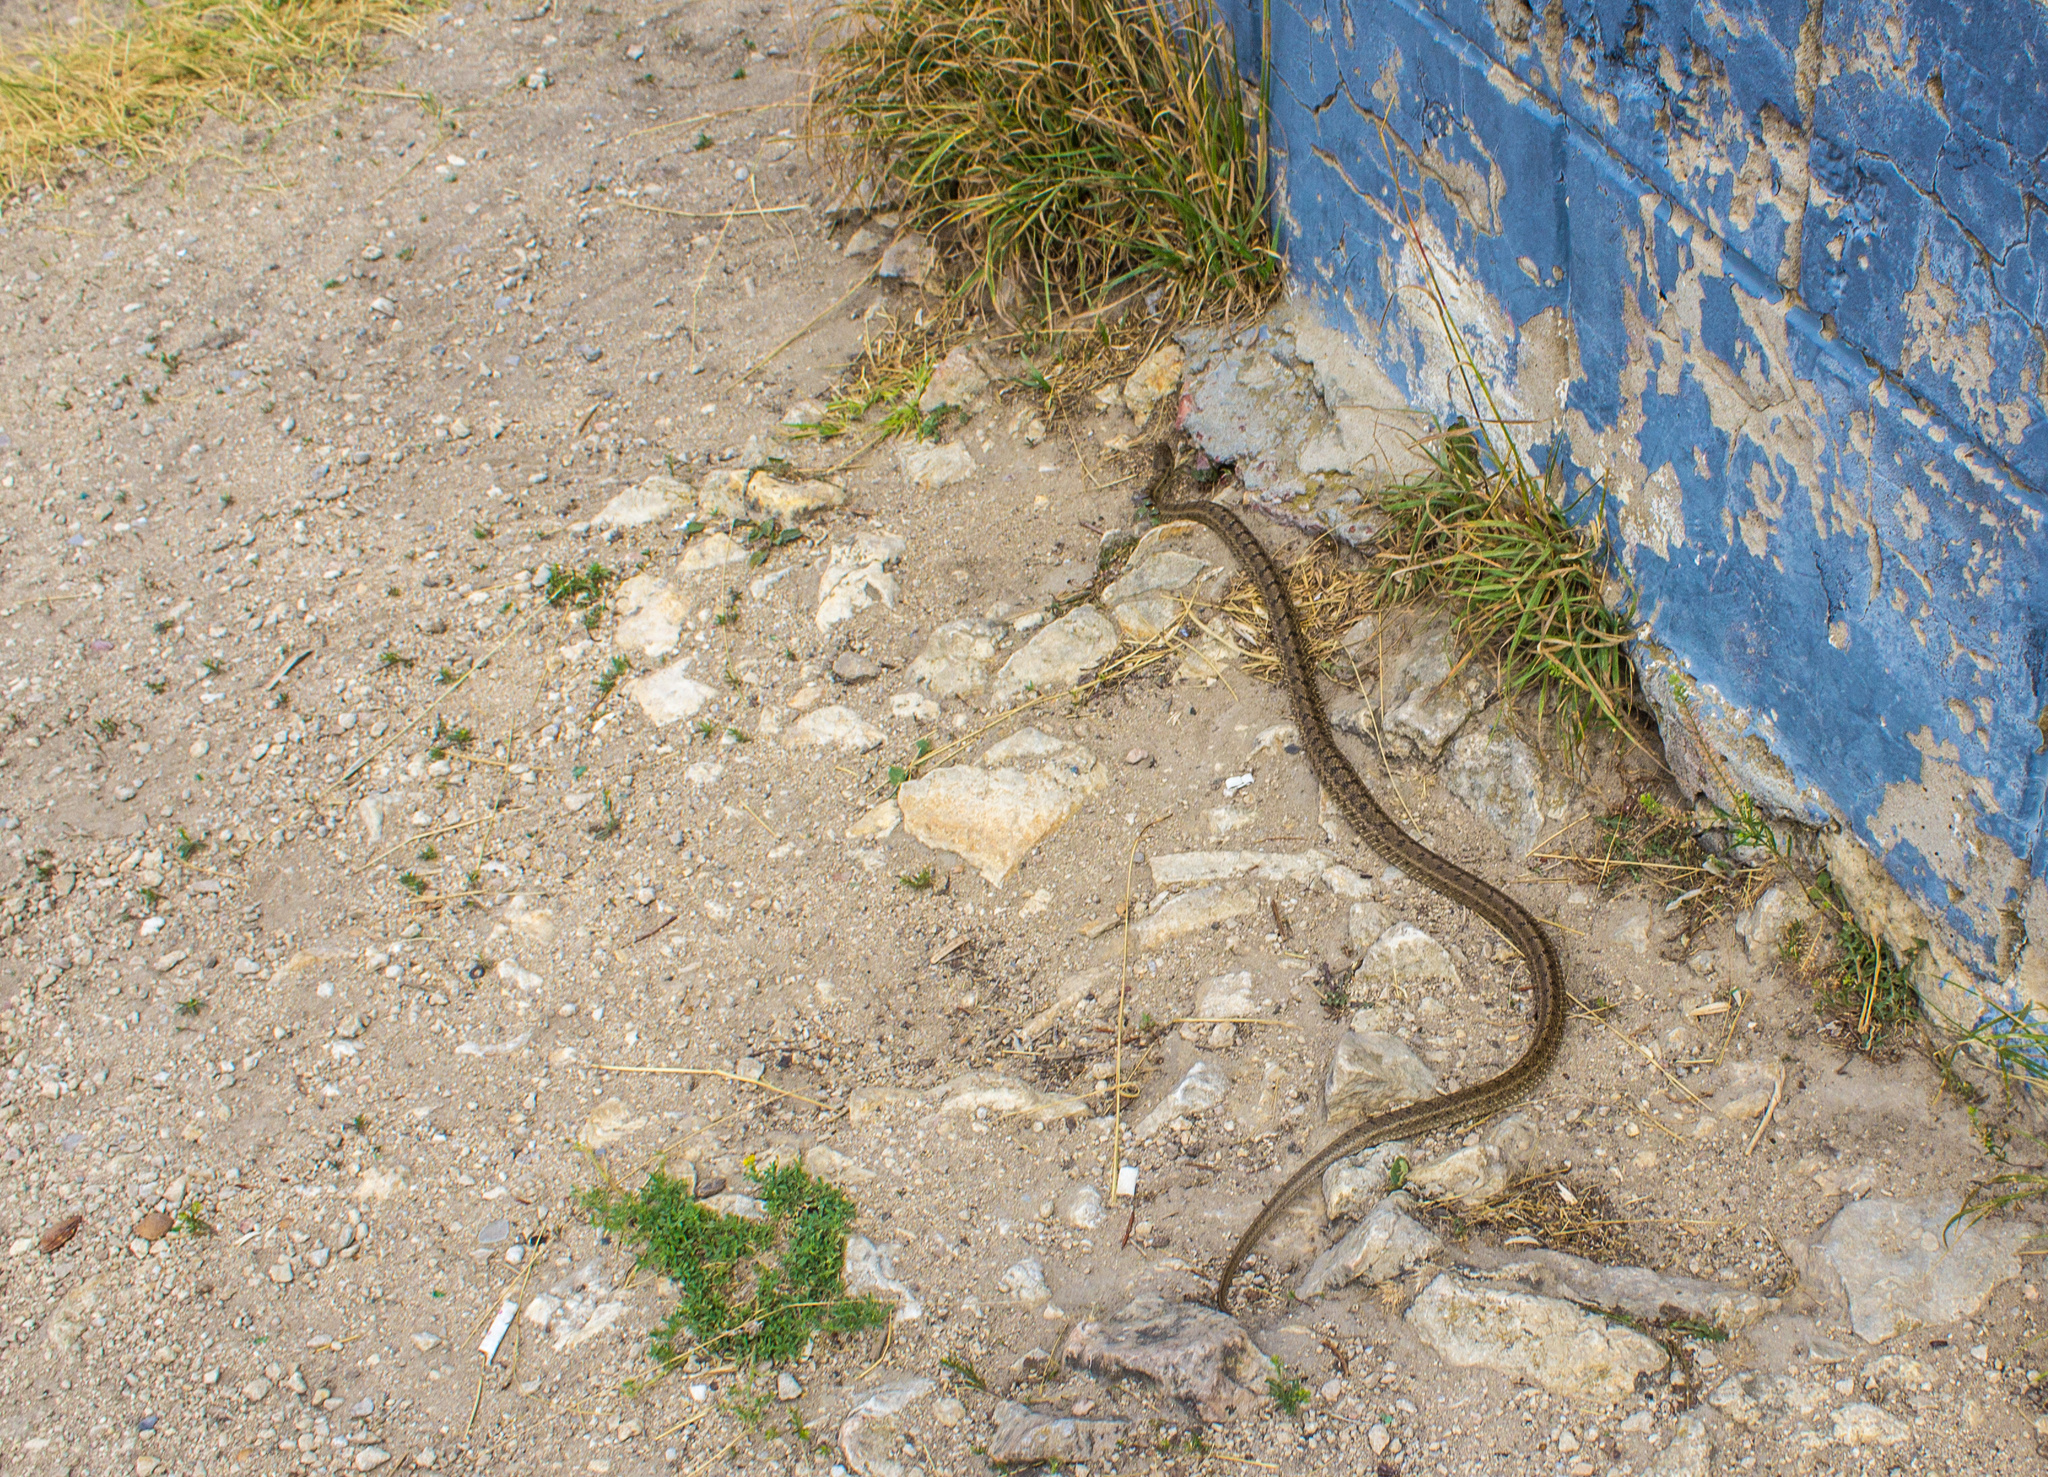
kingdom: Animalia
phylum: Chordata
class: Squamata
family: Colubridae
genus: Elaphe
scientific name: Elaphe dione
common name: Dione ratsnake
